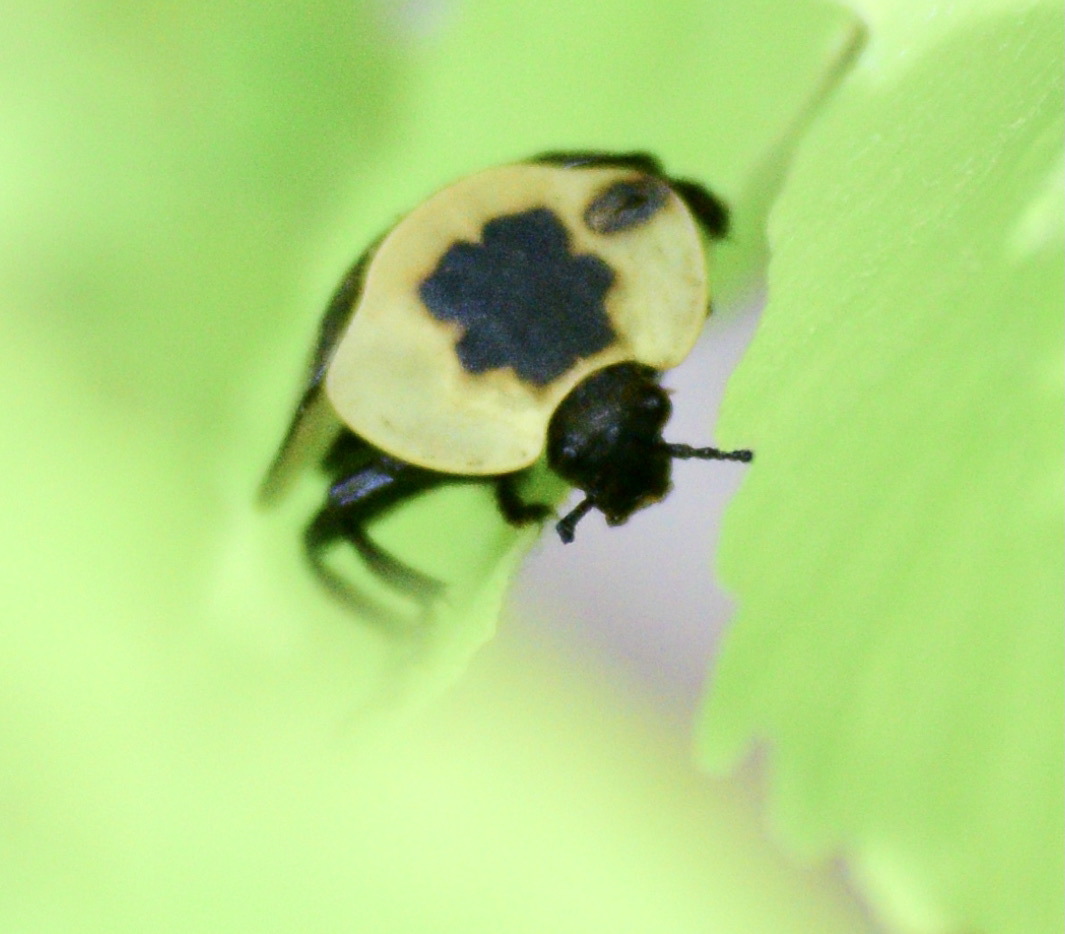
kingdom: Animalia
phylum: Arthropoda
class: Insecta
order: Coleoptera
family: Staphylinidae
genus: Necrophila
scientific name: Necrophila americana
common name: American carrion beetle
